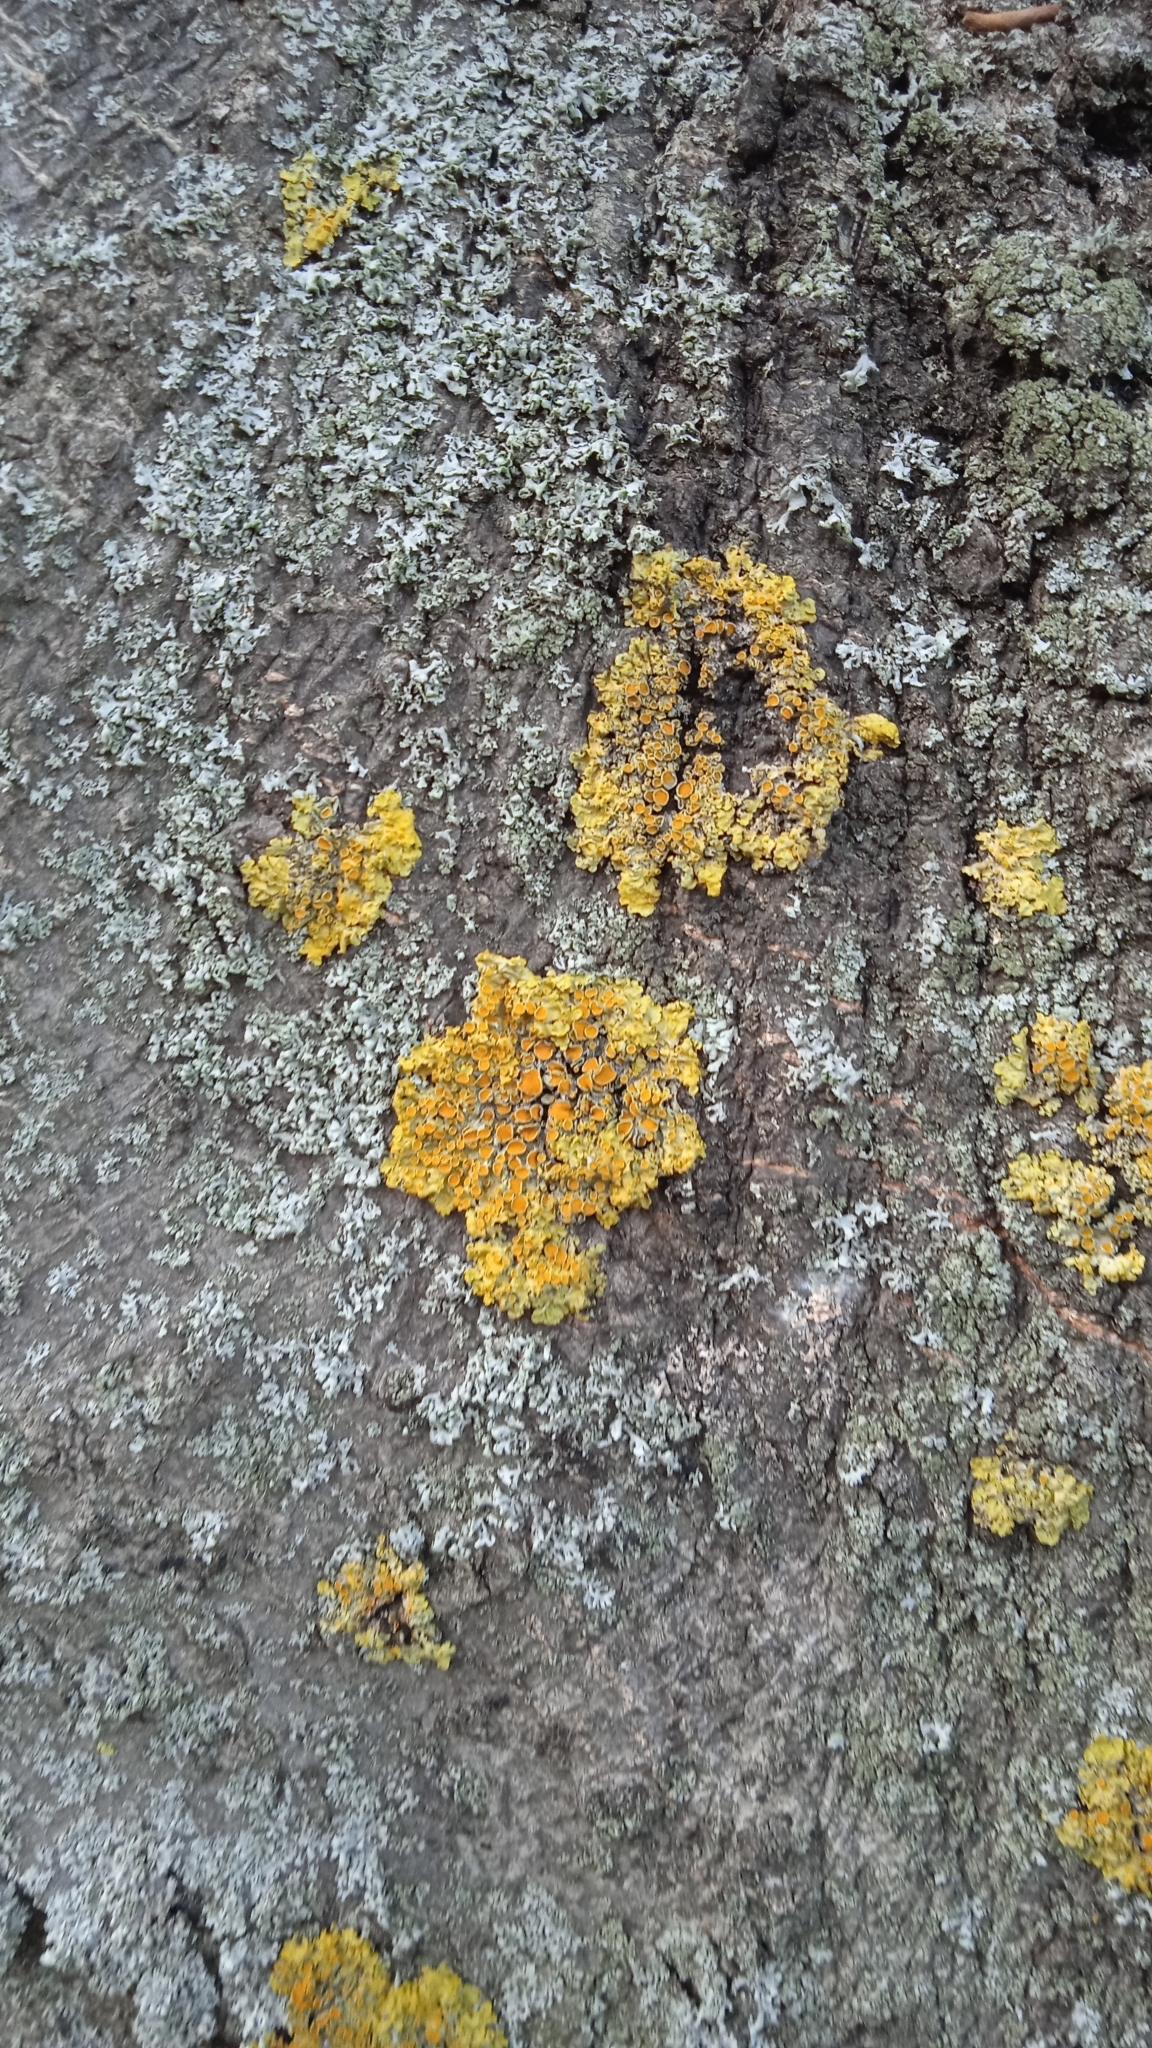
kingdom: Fungi
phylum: Ascomycota
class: Lecanoromycetes
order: Teloschistales
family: Teloschistaceae
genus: Xanthoria
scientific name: Xanthoria parietina
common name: Common orange lichen
